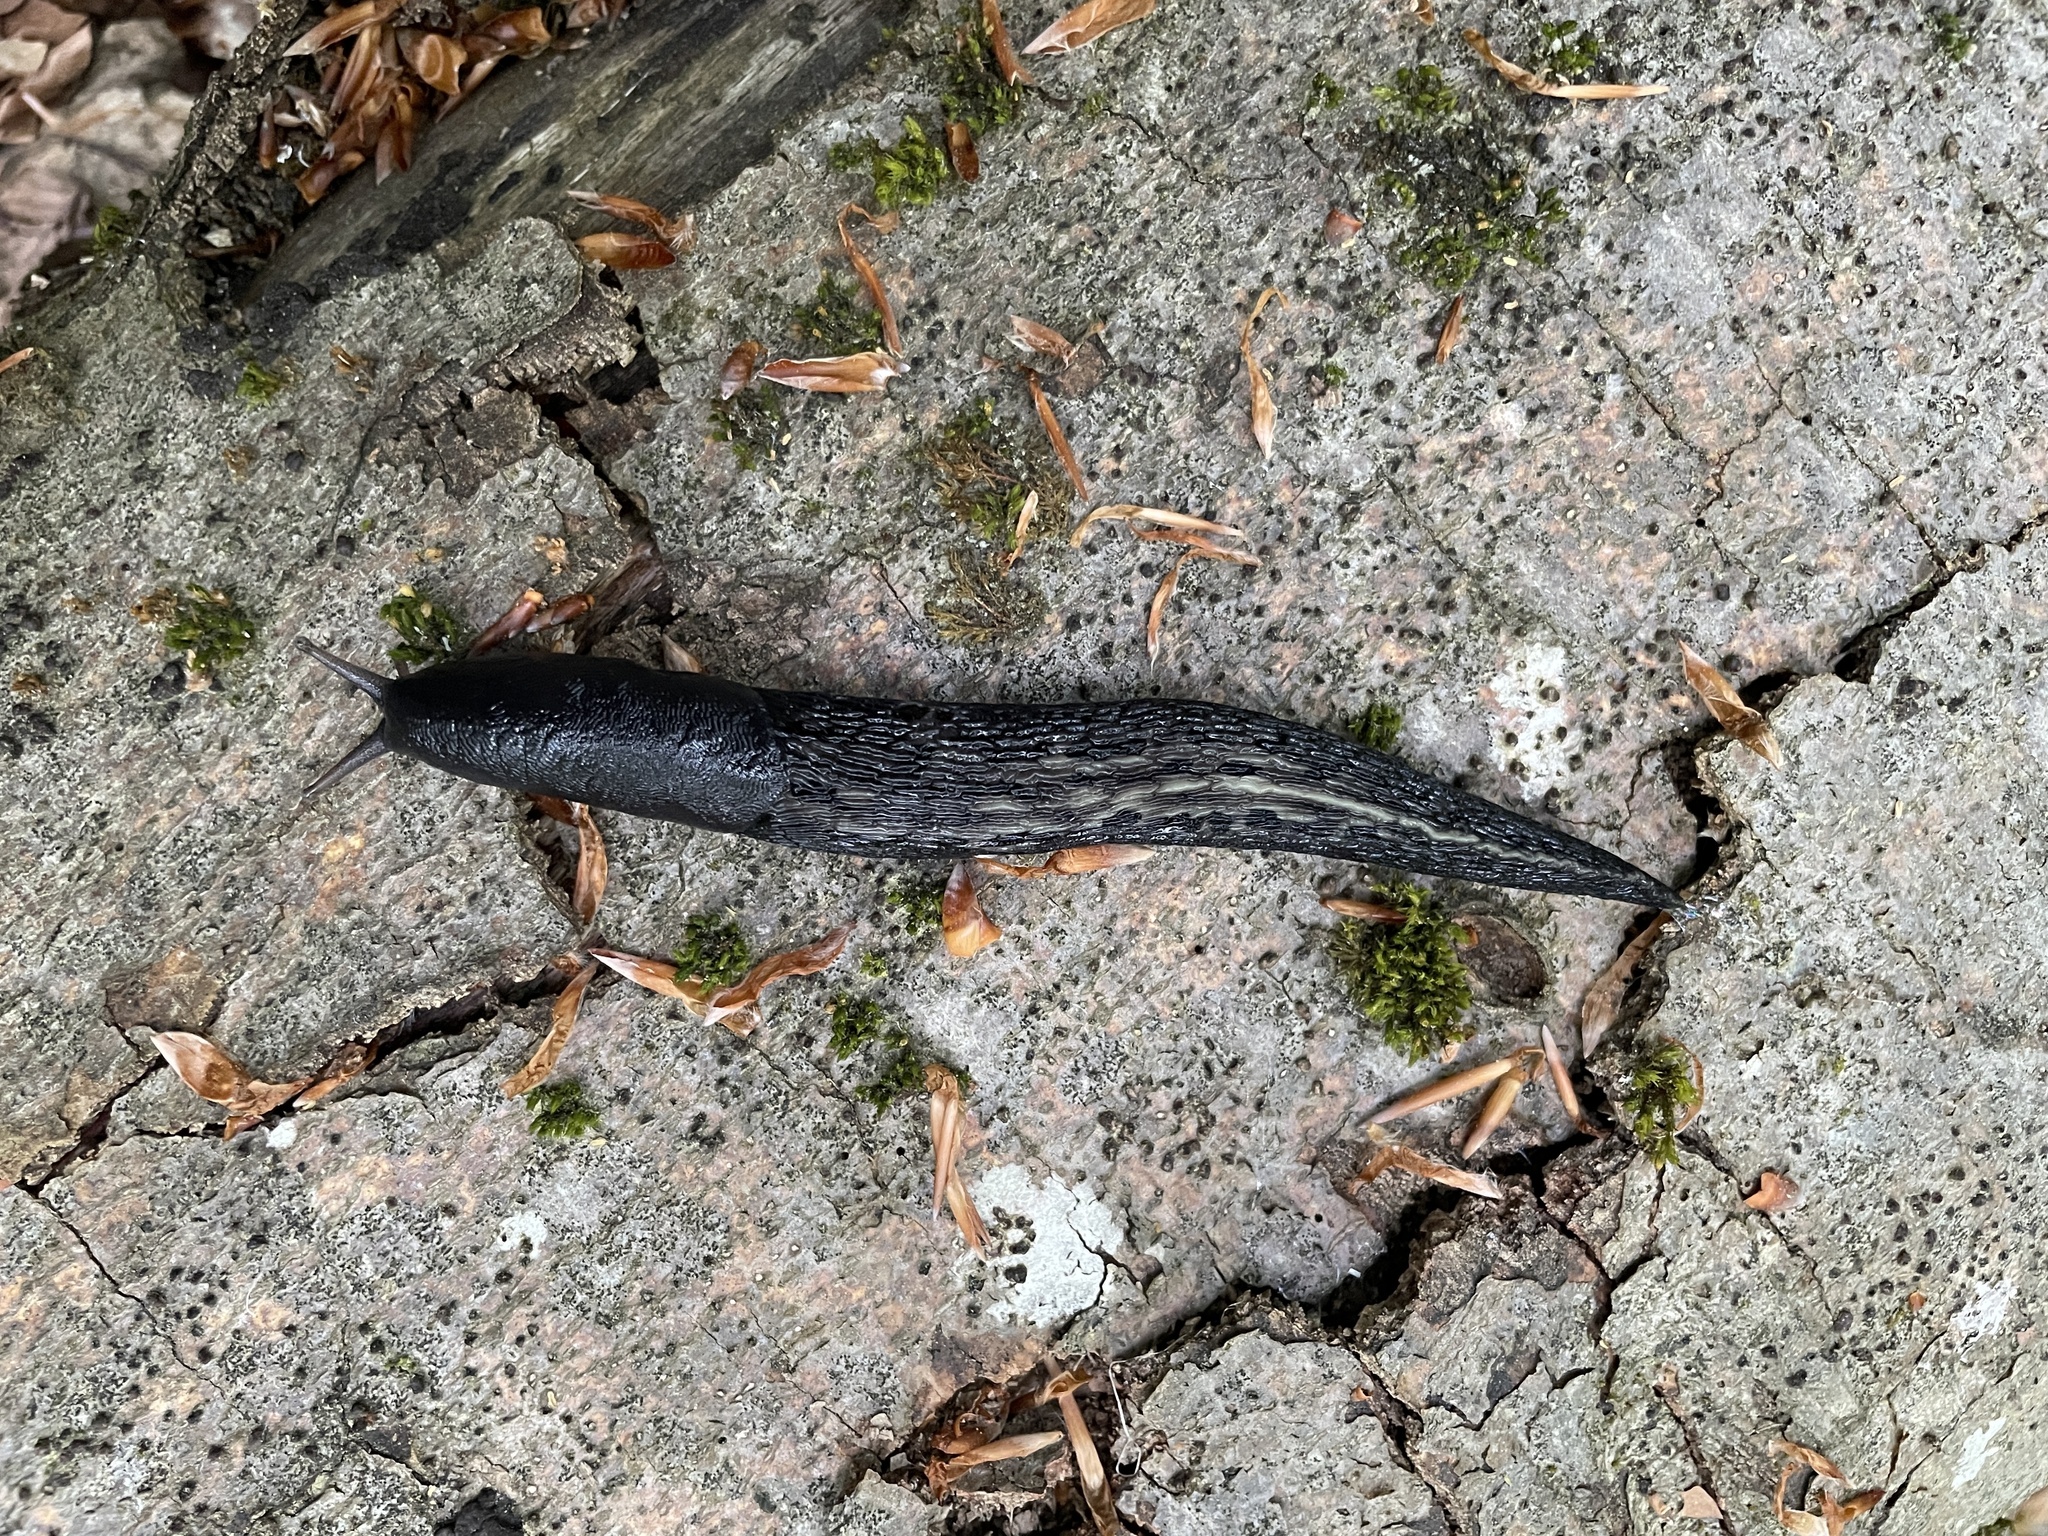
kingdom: Animalia
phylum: Mollusca
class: Gastropoda
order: Stylommatophora
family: Limacidae
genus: Limax
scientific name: Limax cinereoniger
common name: Ash-black slug
